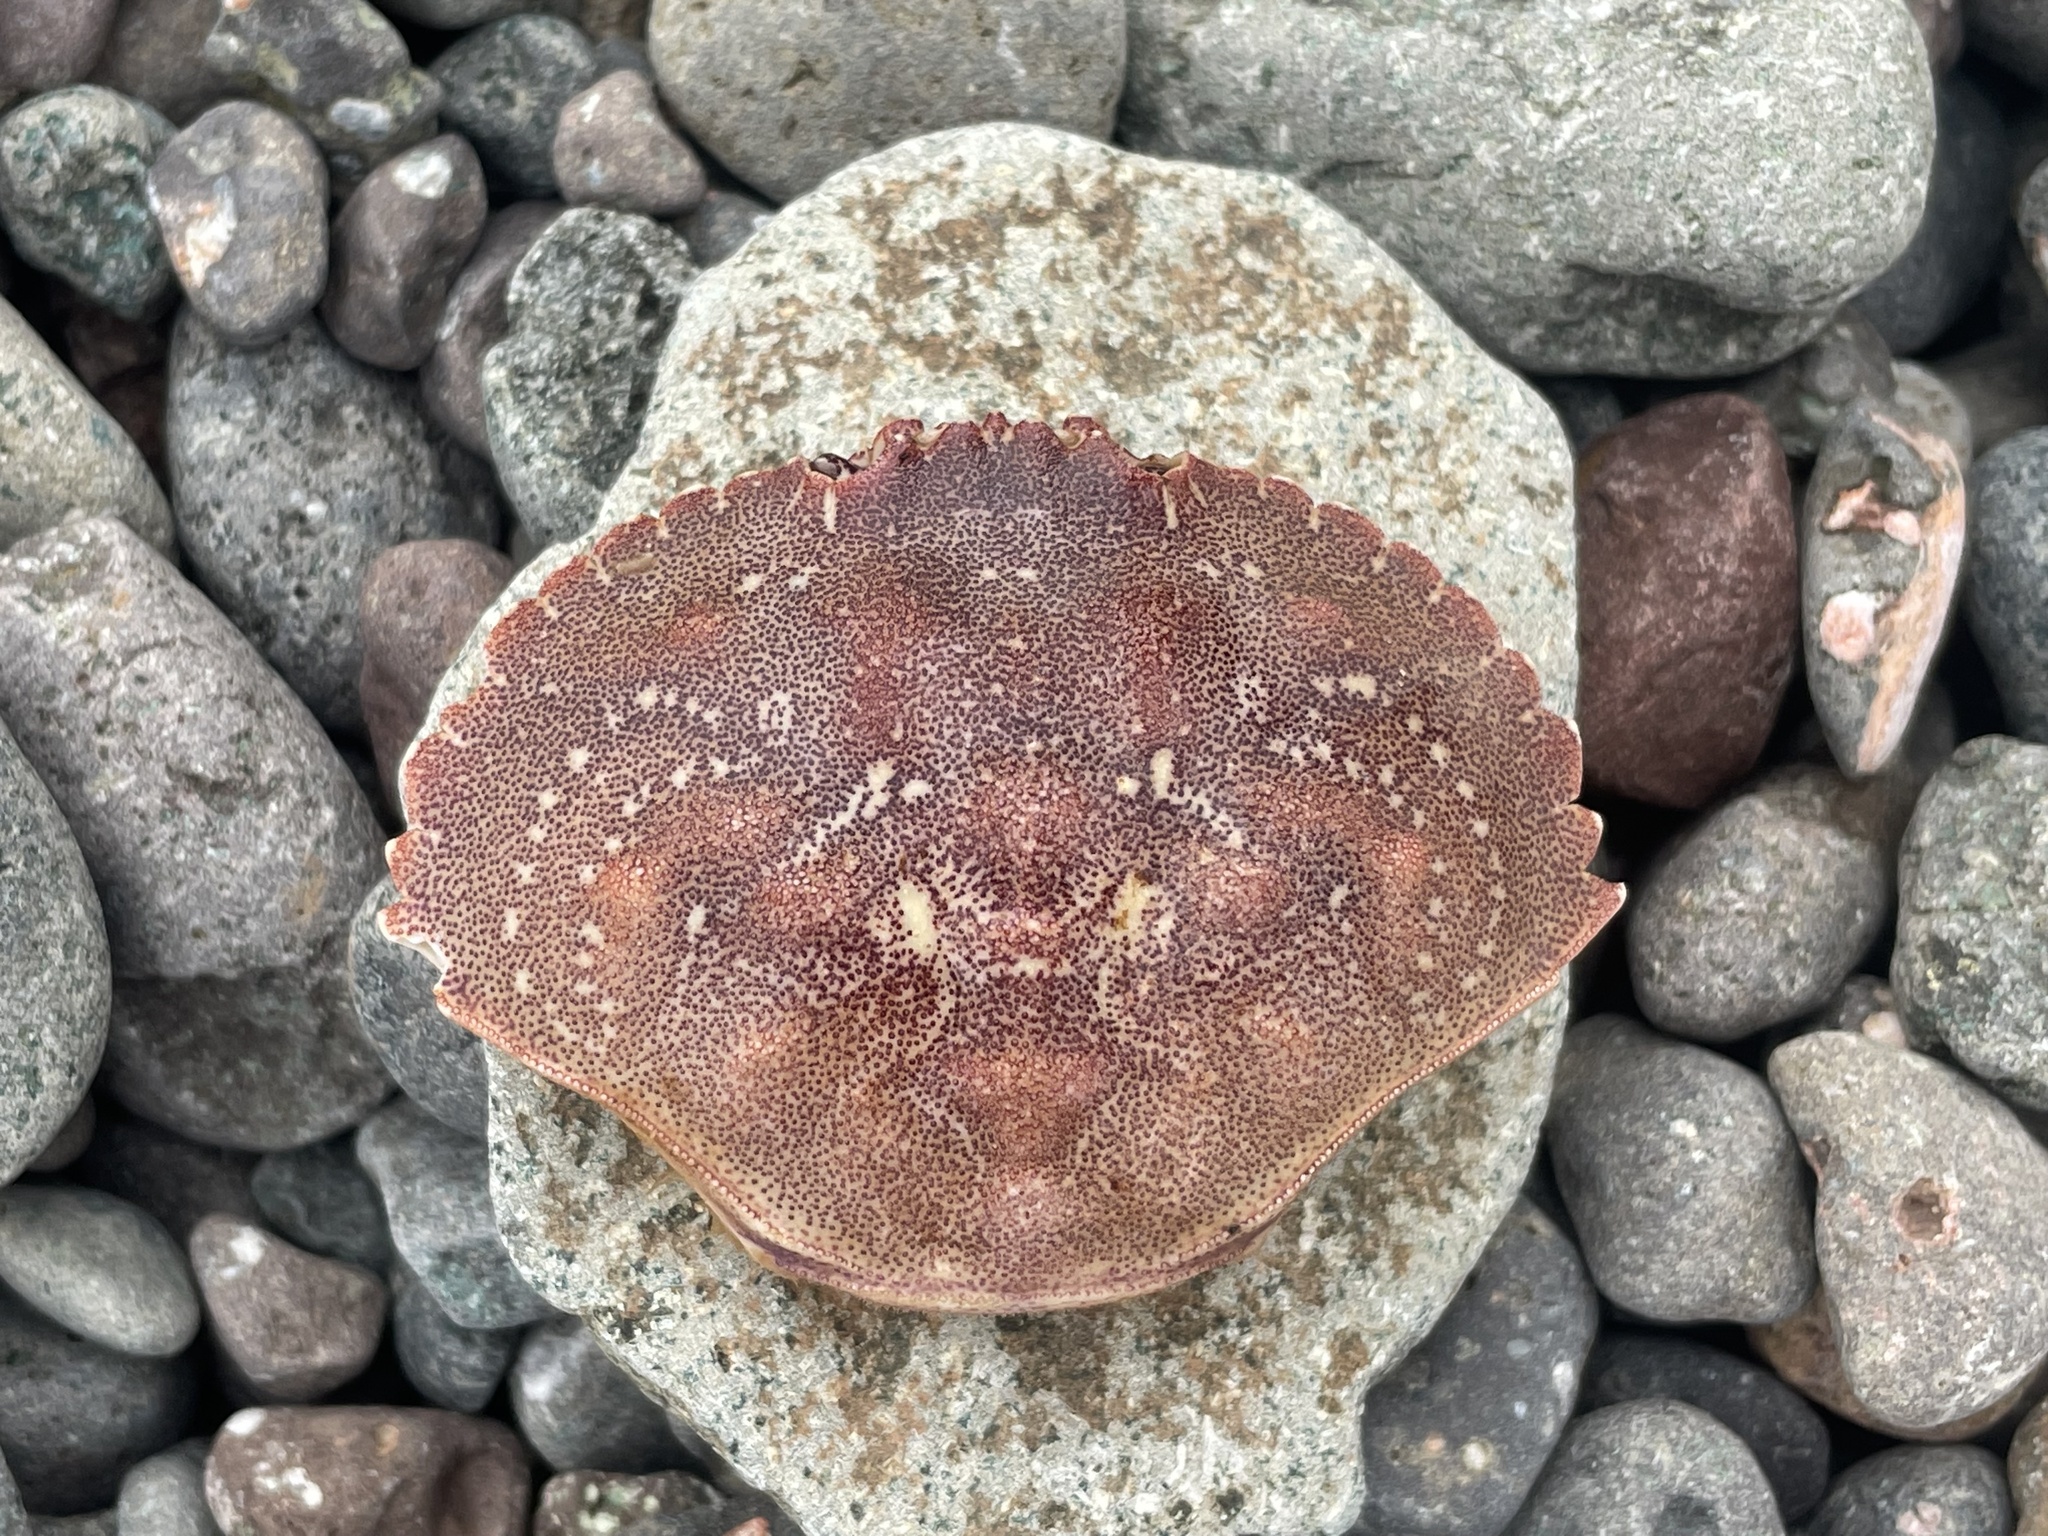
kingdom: Animalia
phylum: Arthropoda
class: Malacostraca
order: Decapoda
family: Cancridae
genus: Cancer
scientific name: Cancer irroratus
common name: Atlantic rock crab
